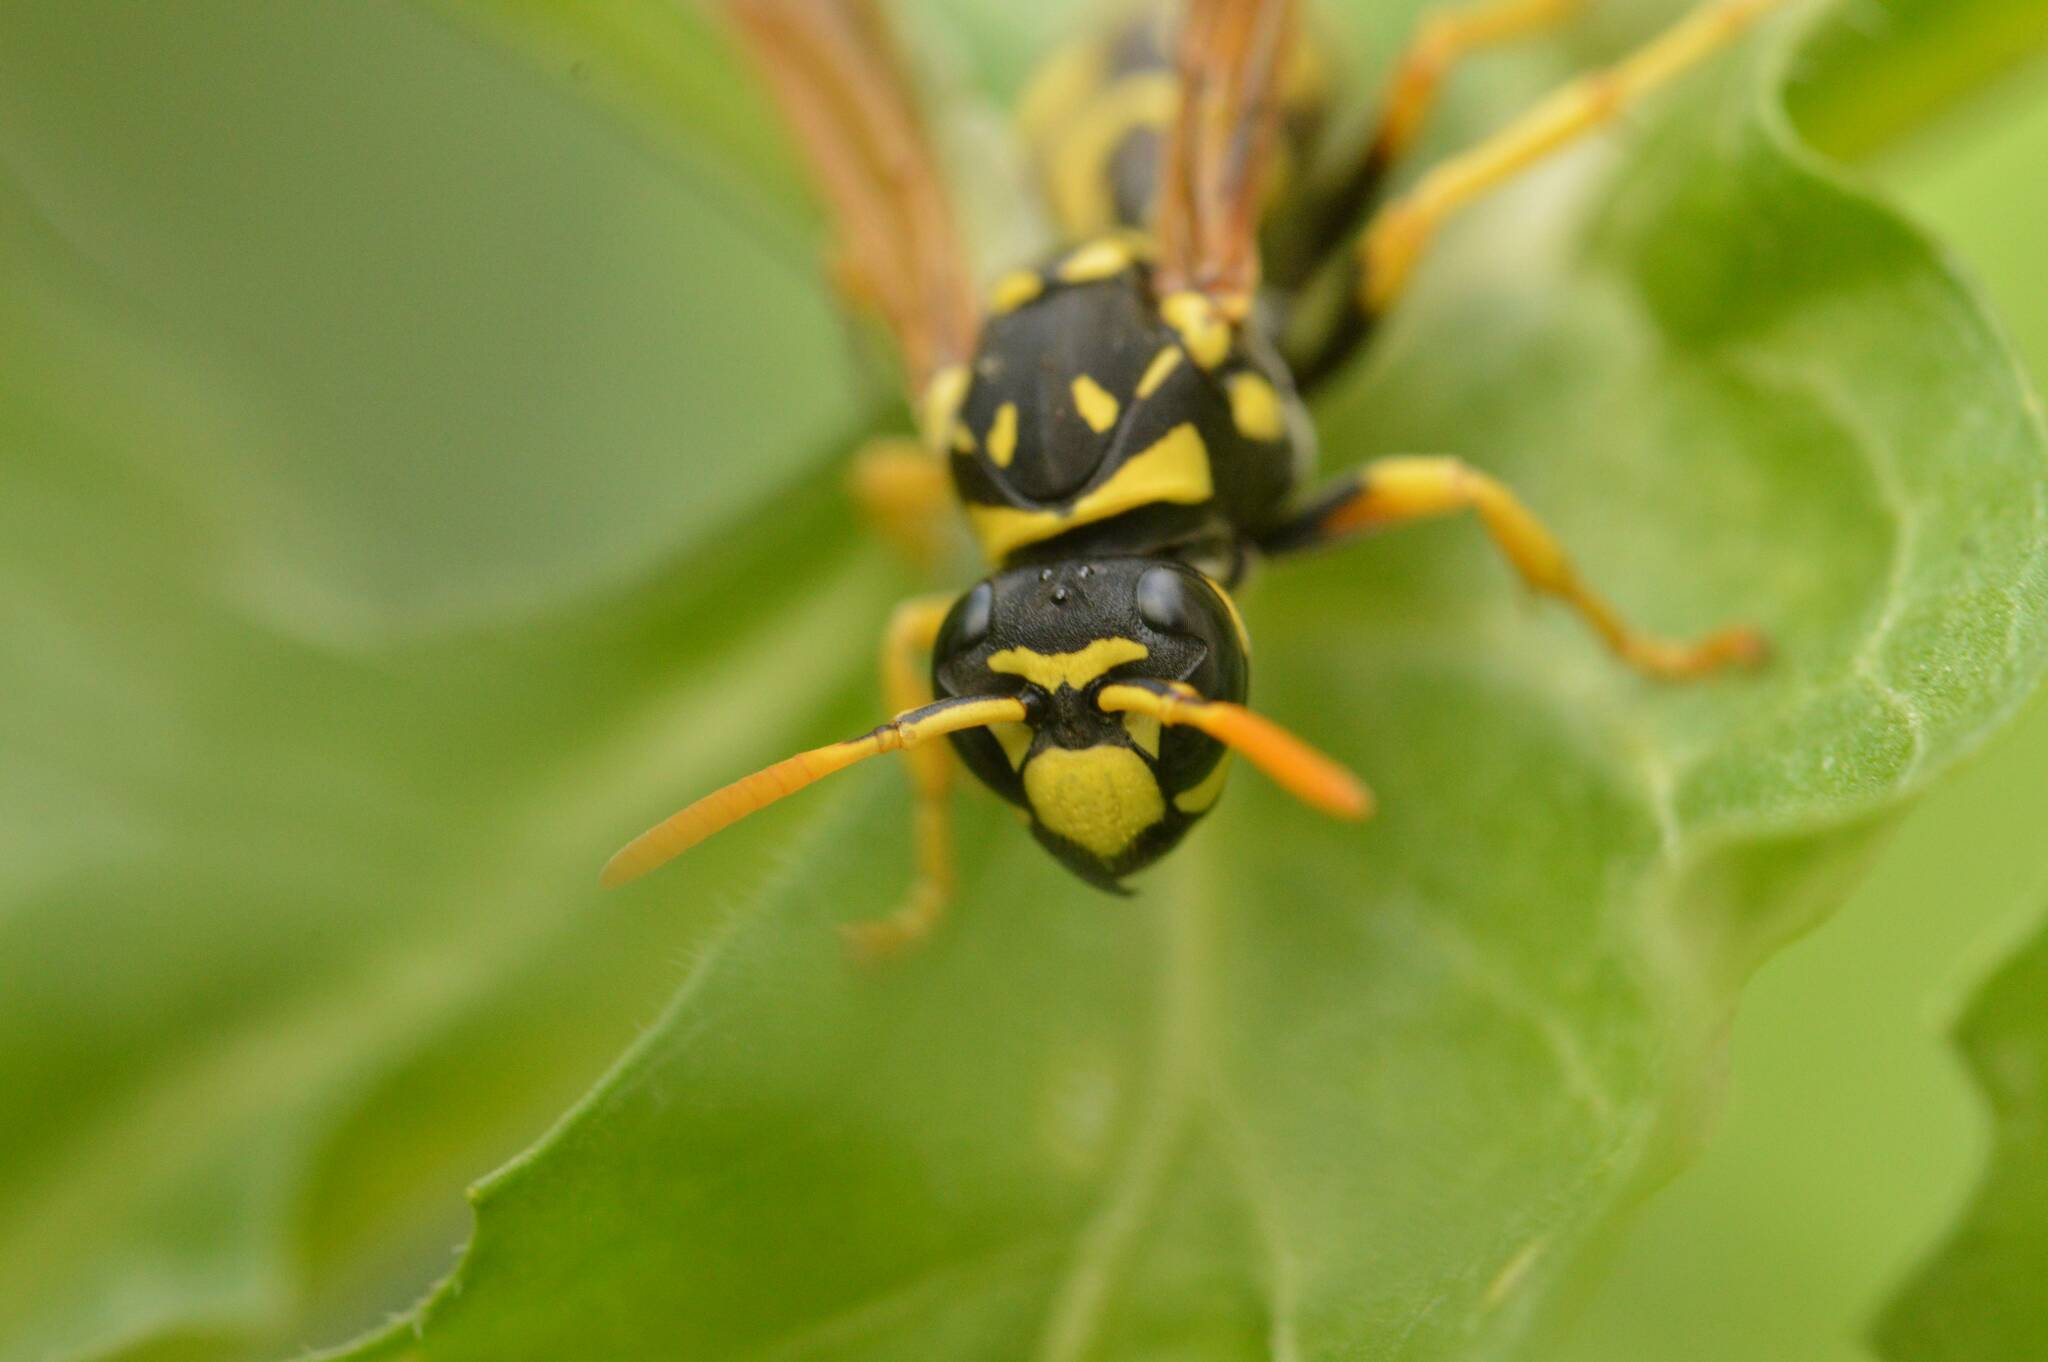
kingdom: Animalia
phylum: Arthropoda
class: Insecta
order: Hymenoptera
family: Eumenidae
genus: Polistes
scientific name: Polistes dominula
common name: Paper wasp
